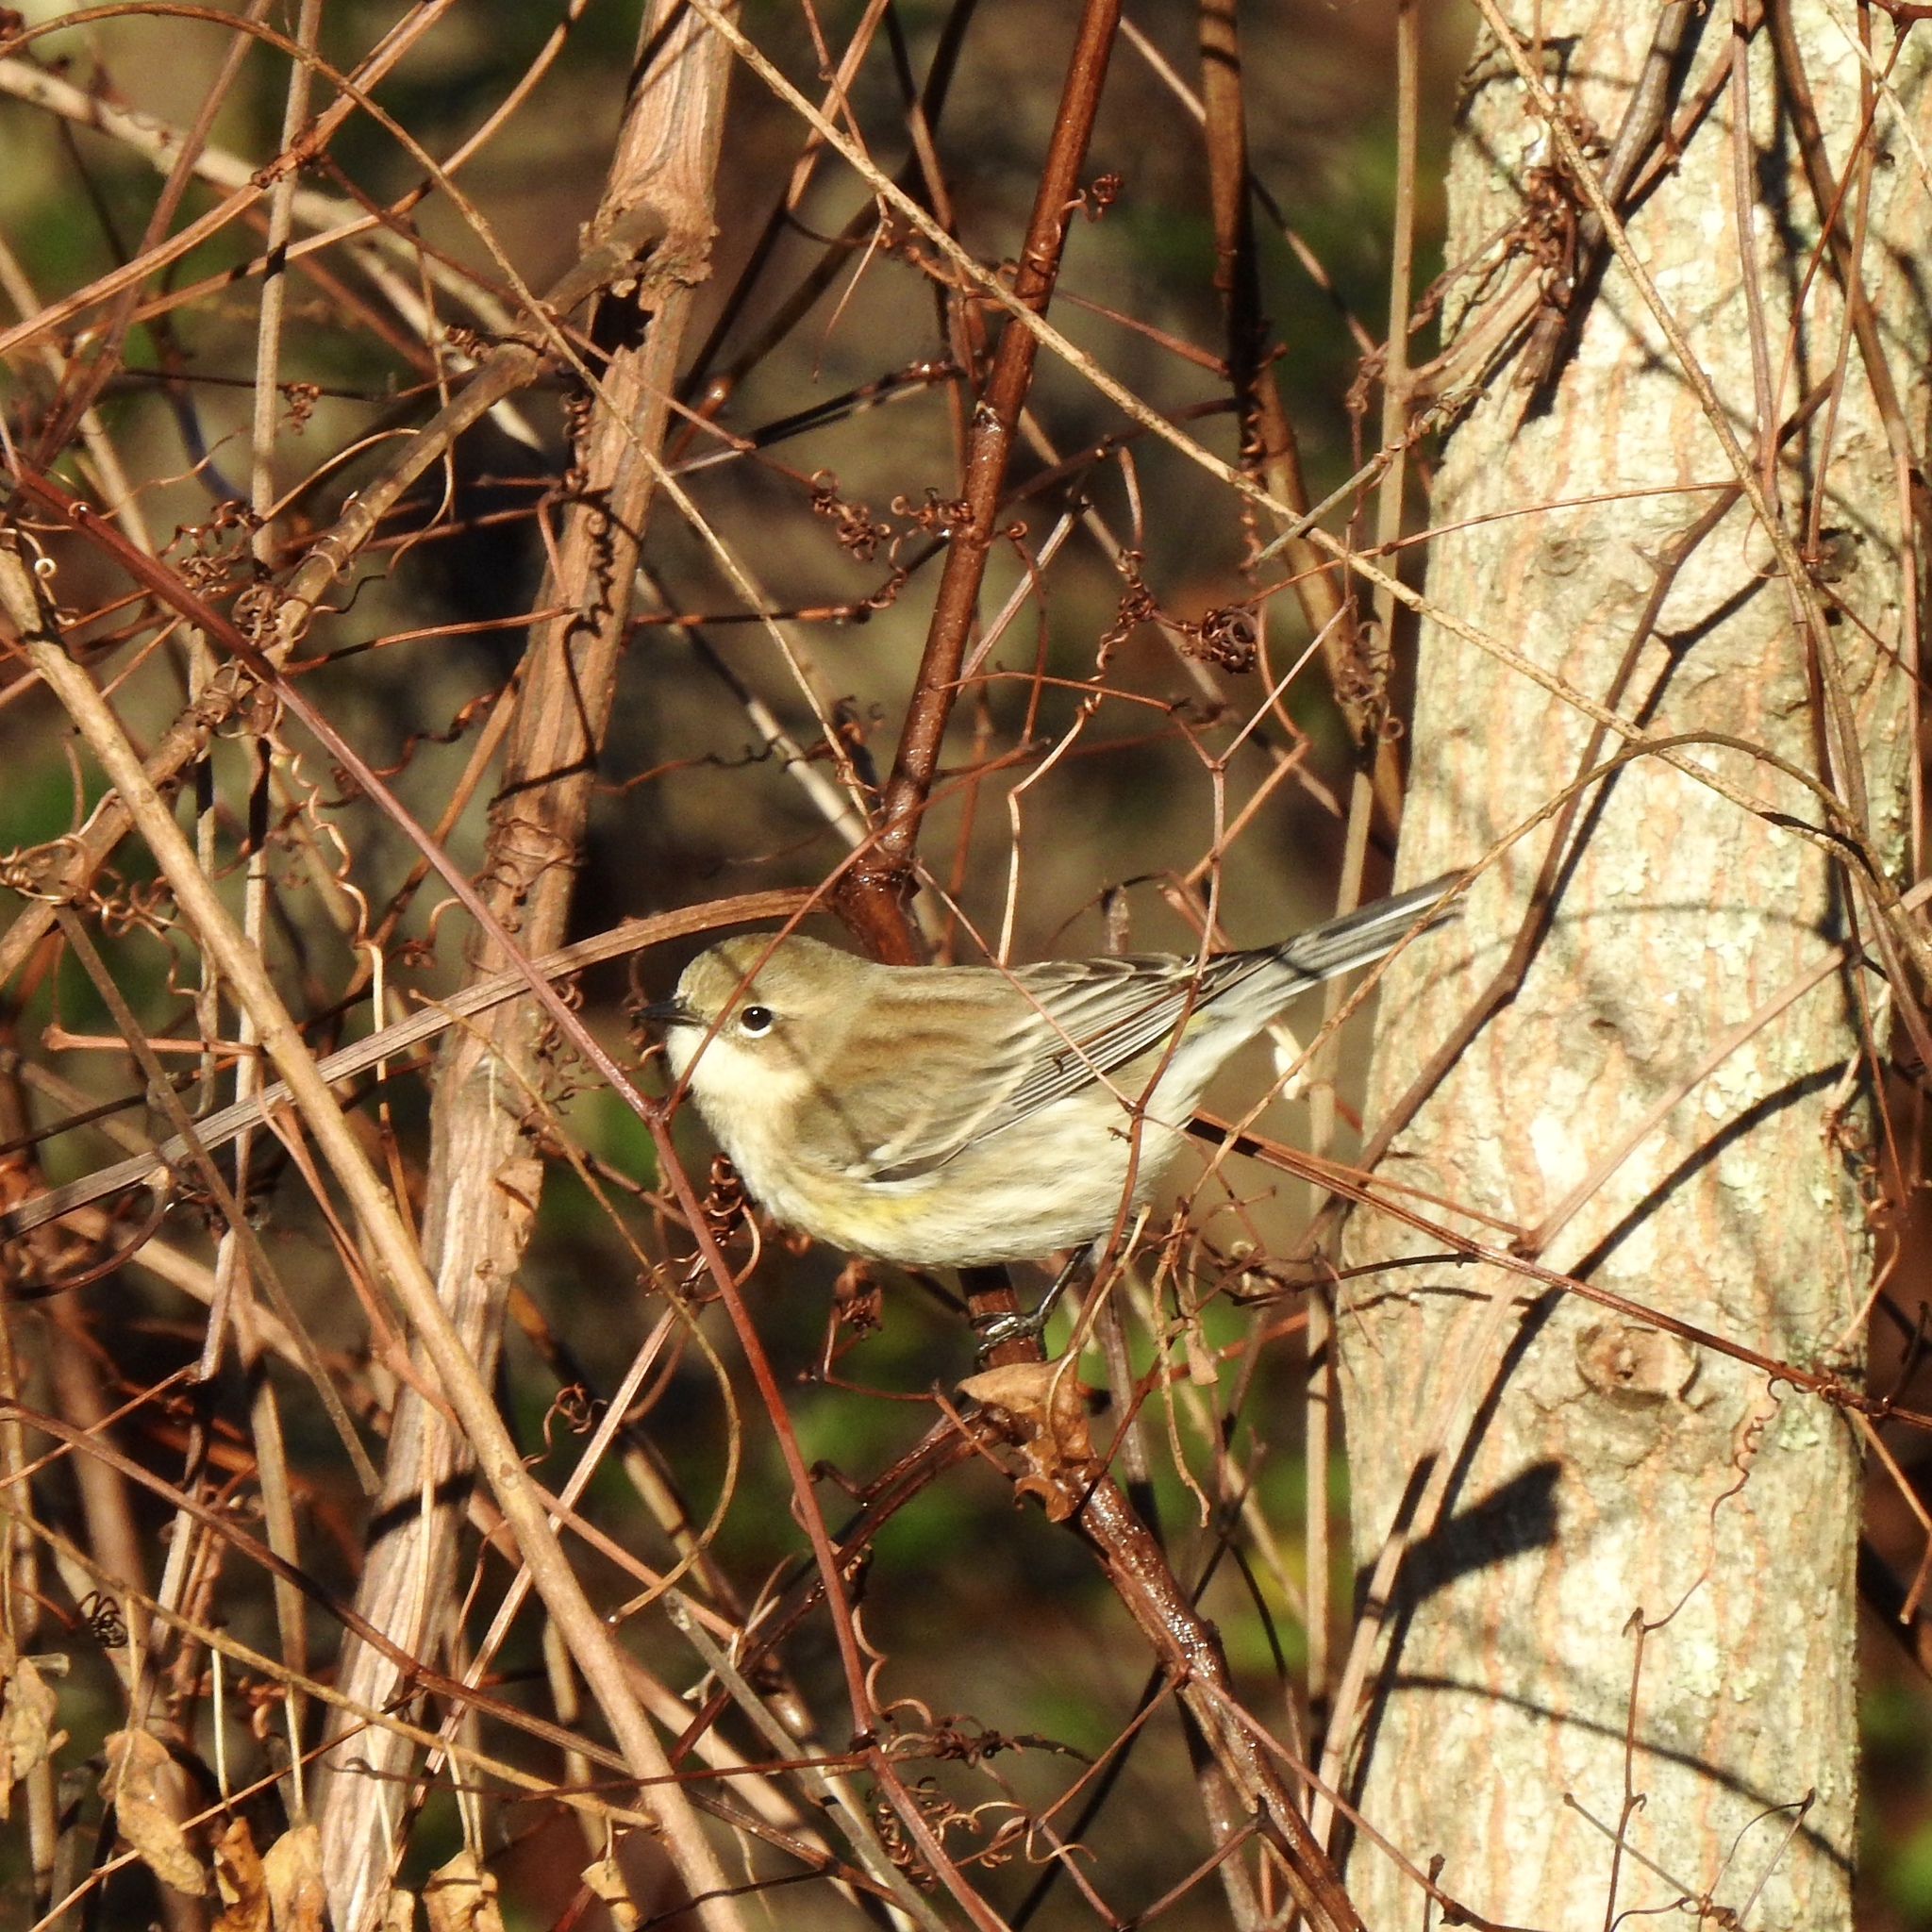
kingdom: Animalia
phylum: Chordata
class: Aves
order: Passeriformes
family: Parulidae
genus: Setophaga
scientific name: Setophaga coronata
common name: Myrtle warbler
